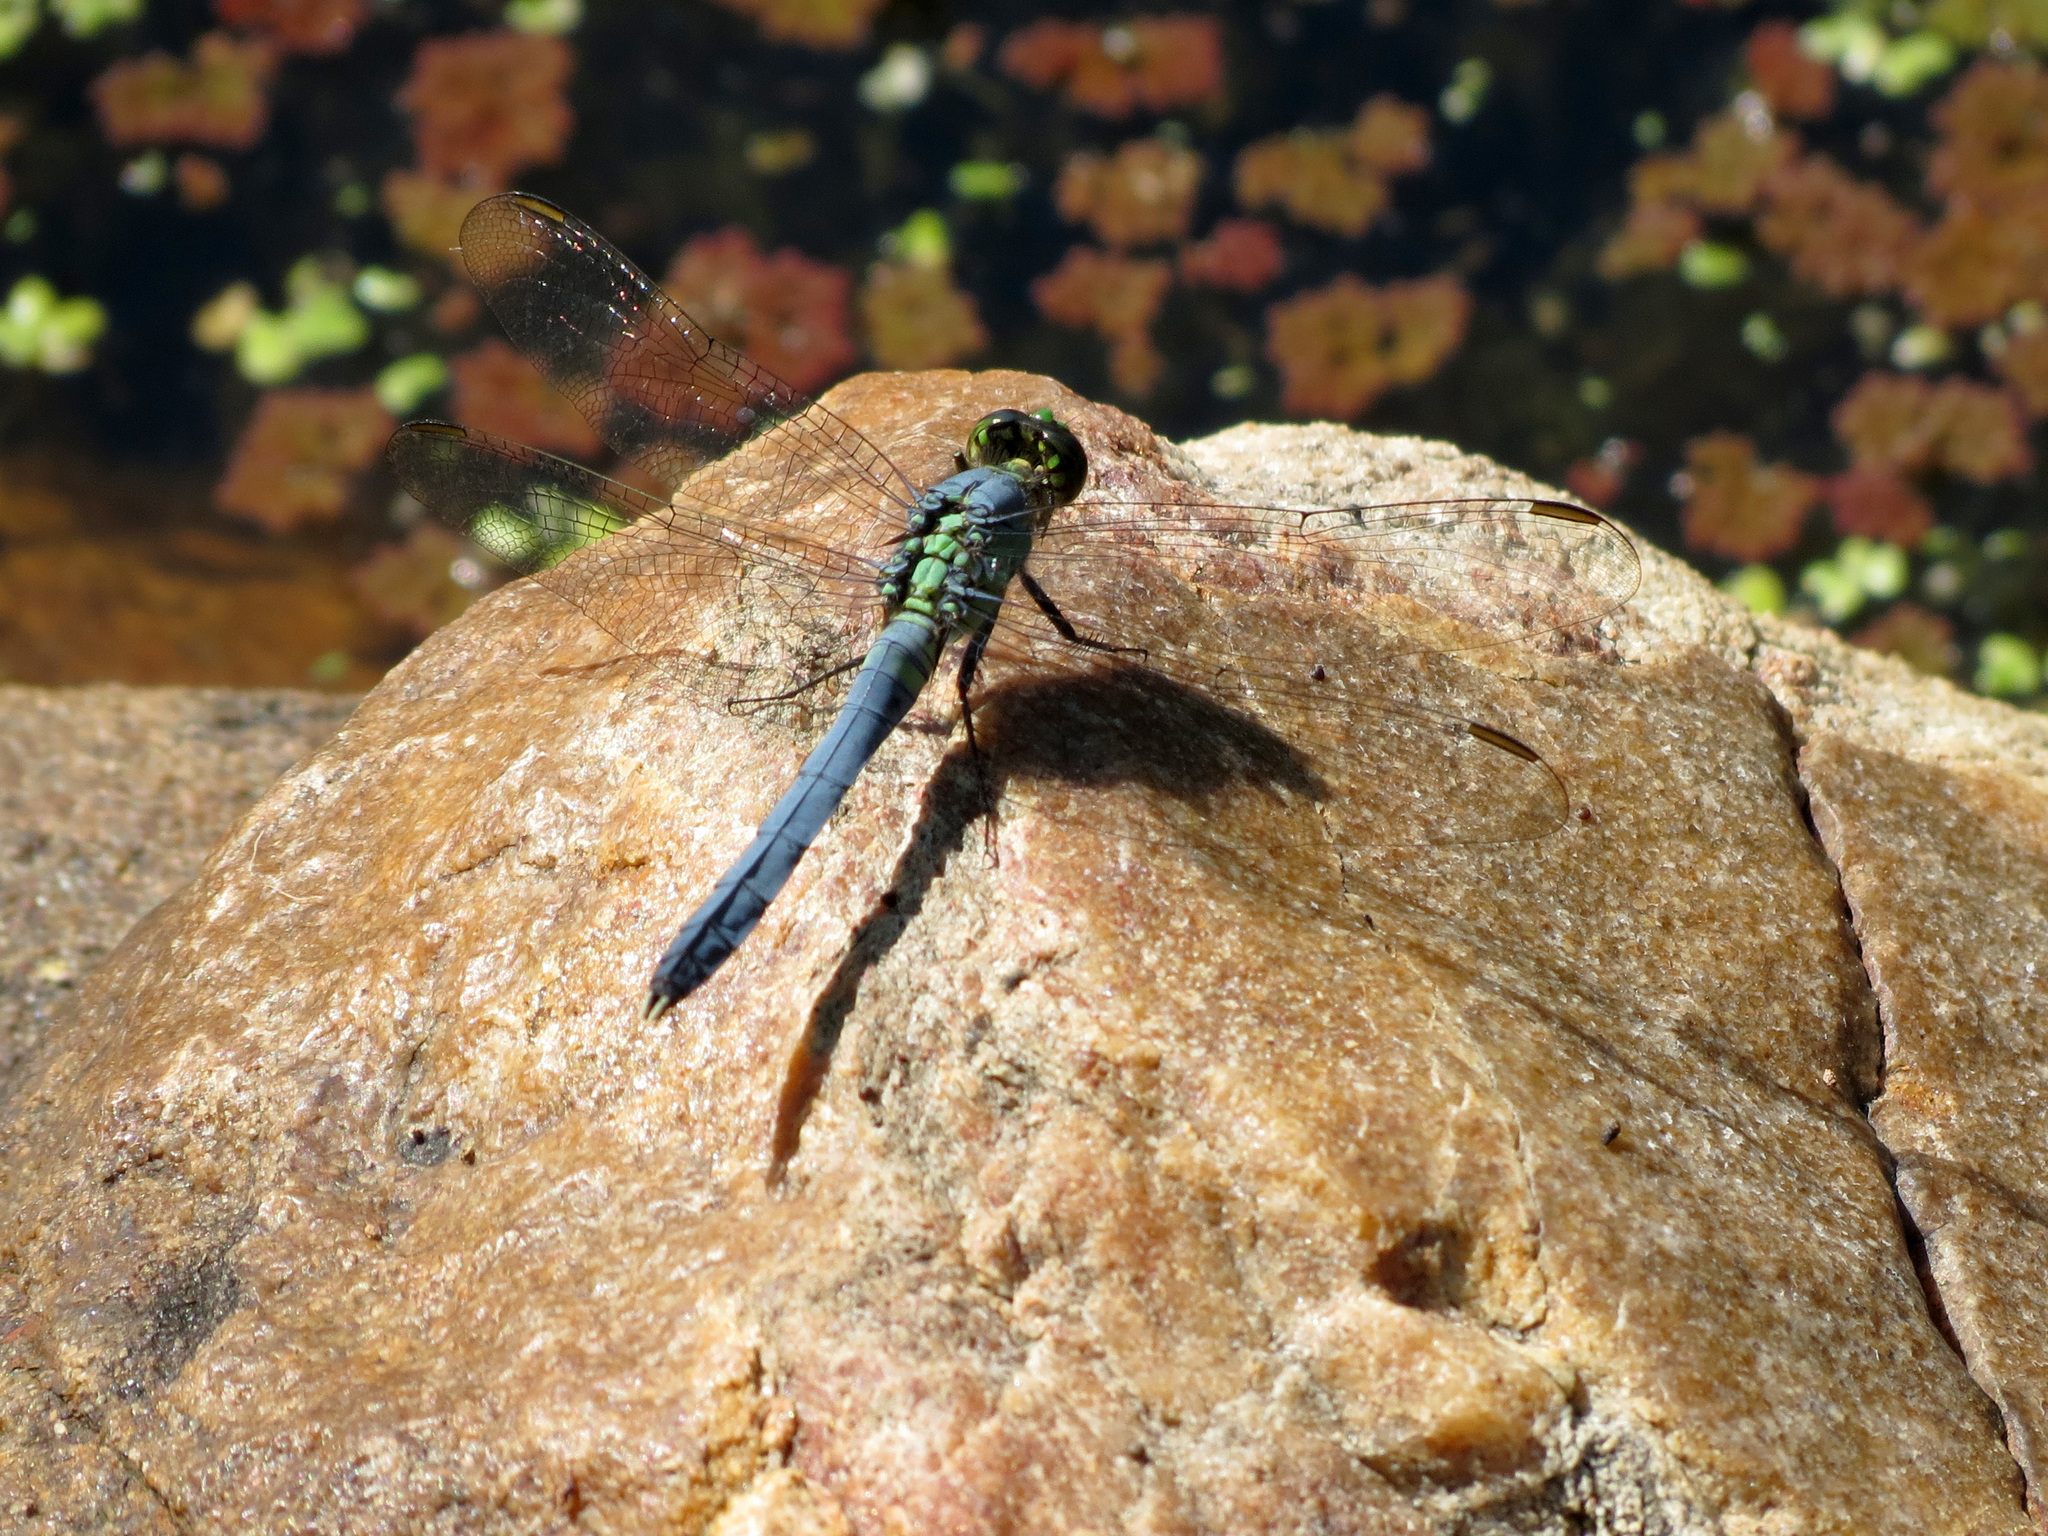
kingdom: Animalia
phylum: Arthropoda
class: Insecta
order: Odonata
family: Libellulidae
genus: Erythemis
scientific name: Erythemis simplicicollis
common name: Eastern pondhawk
